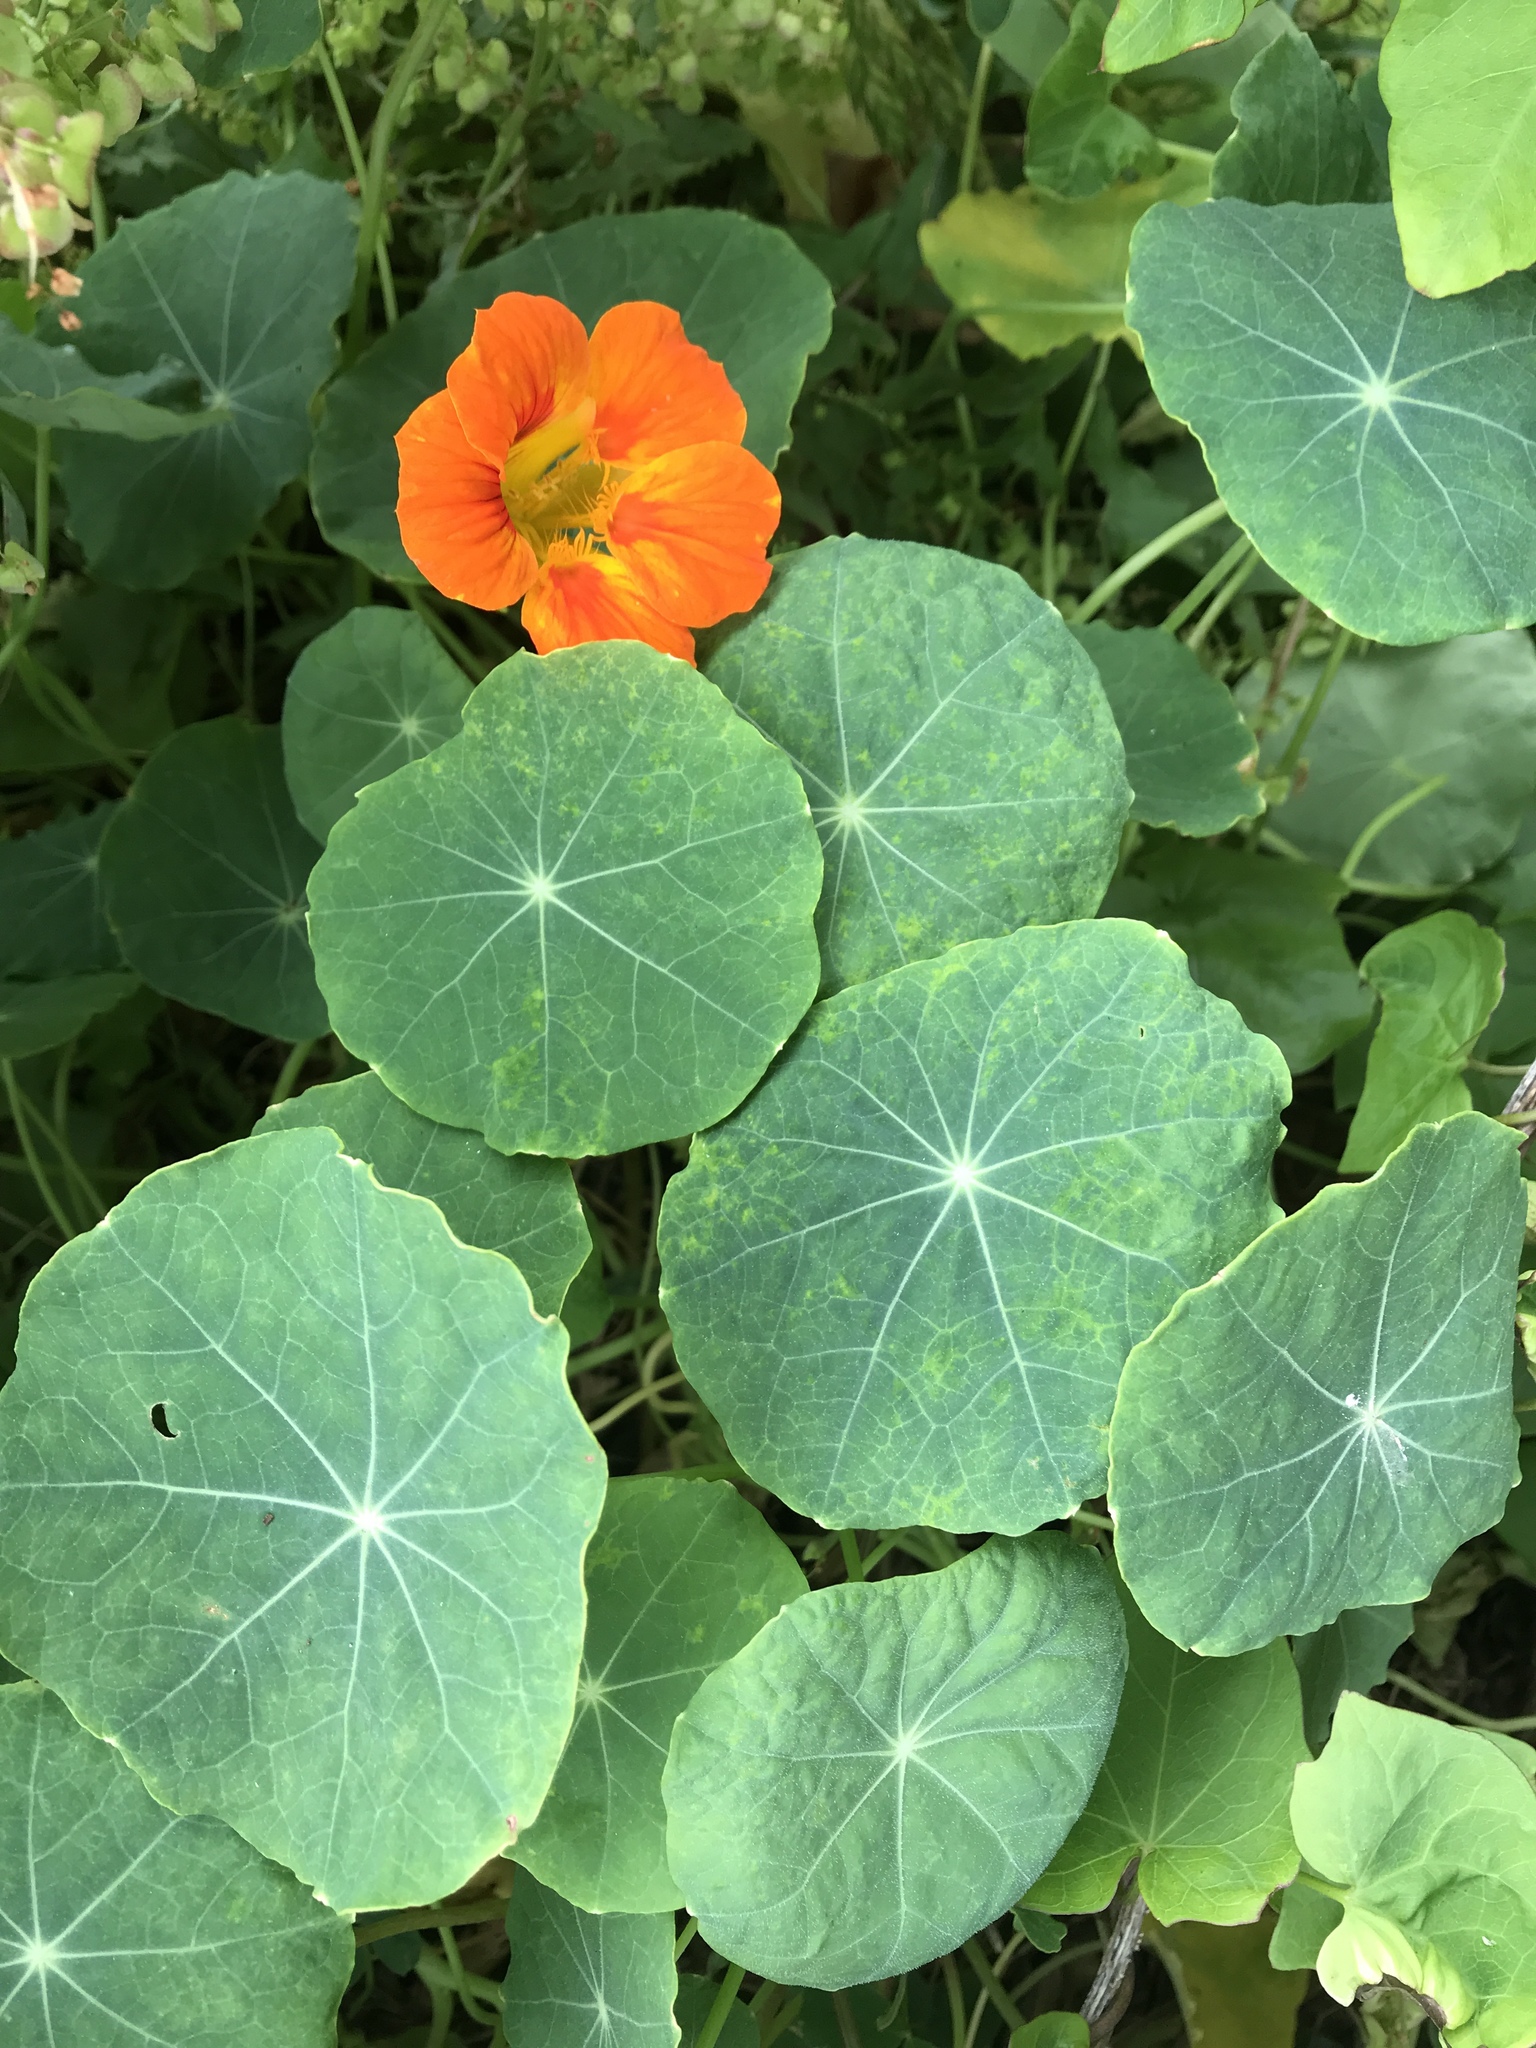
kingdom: Plantae
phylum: Tracheophyta
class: Magnoliopsida
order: Brassicales
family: Tropaeolaceae
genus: Tropaeolum
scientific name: Tropaeolum majus
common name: Nasturtium
